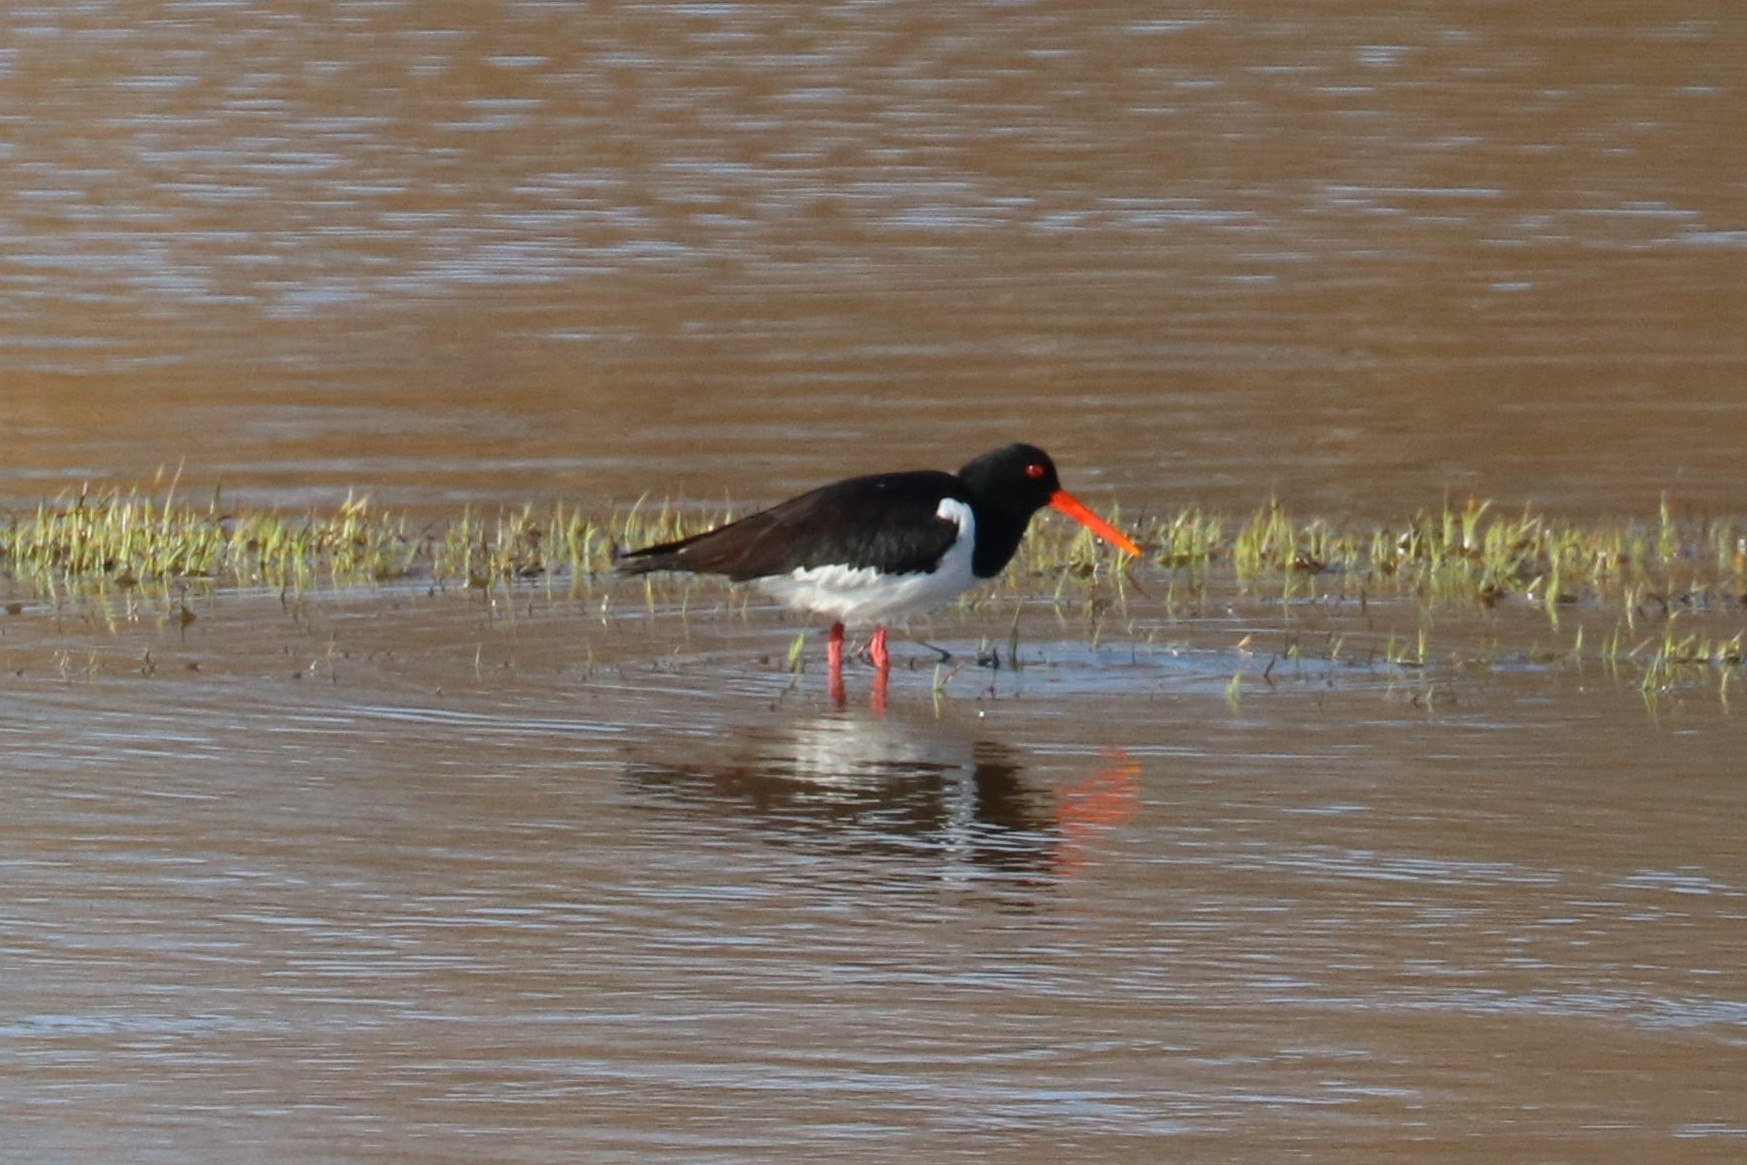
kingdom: Animalia
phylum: Chordata
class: Aves
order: Charadriiformes
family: Haematopodidae
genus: Haematopus
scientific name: Haematopus ostralegus
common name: Eurasian oystercatcher
